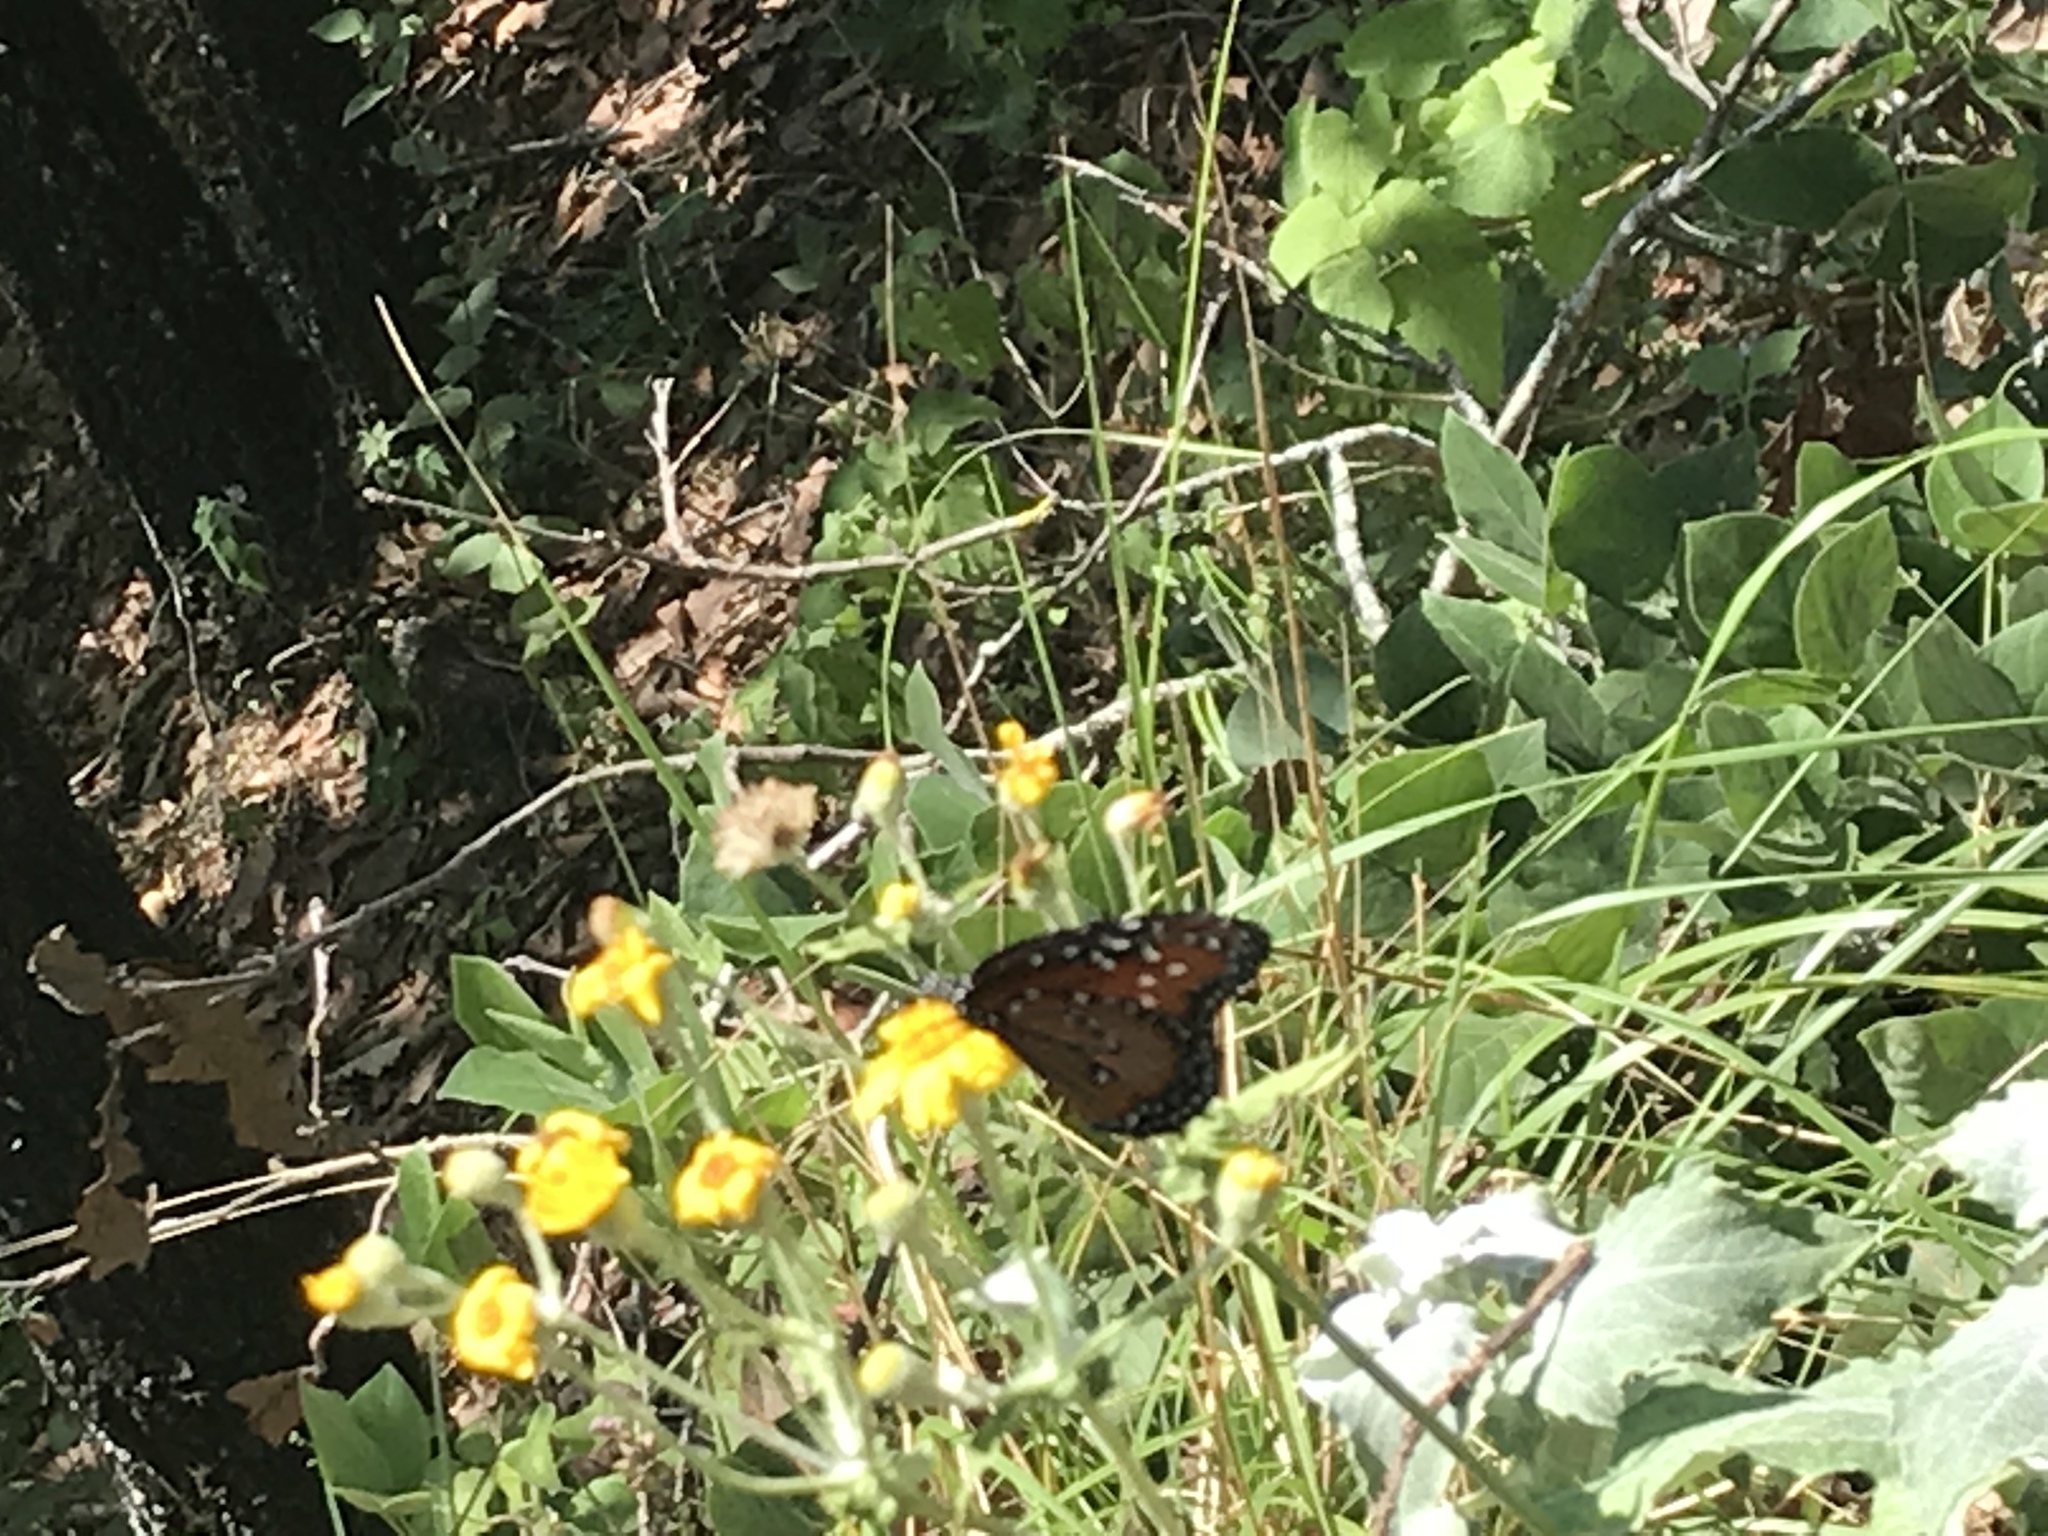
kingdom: Animalia
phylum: Arthropoda
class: Insecta
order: Lepidoptera
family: Nymphalidae
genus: Danaus
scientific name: Danaus gilippus
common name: Queen
